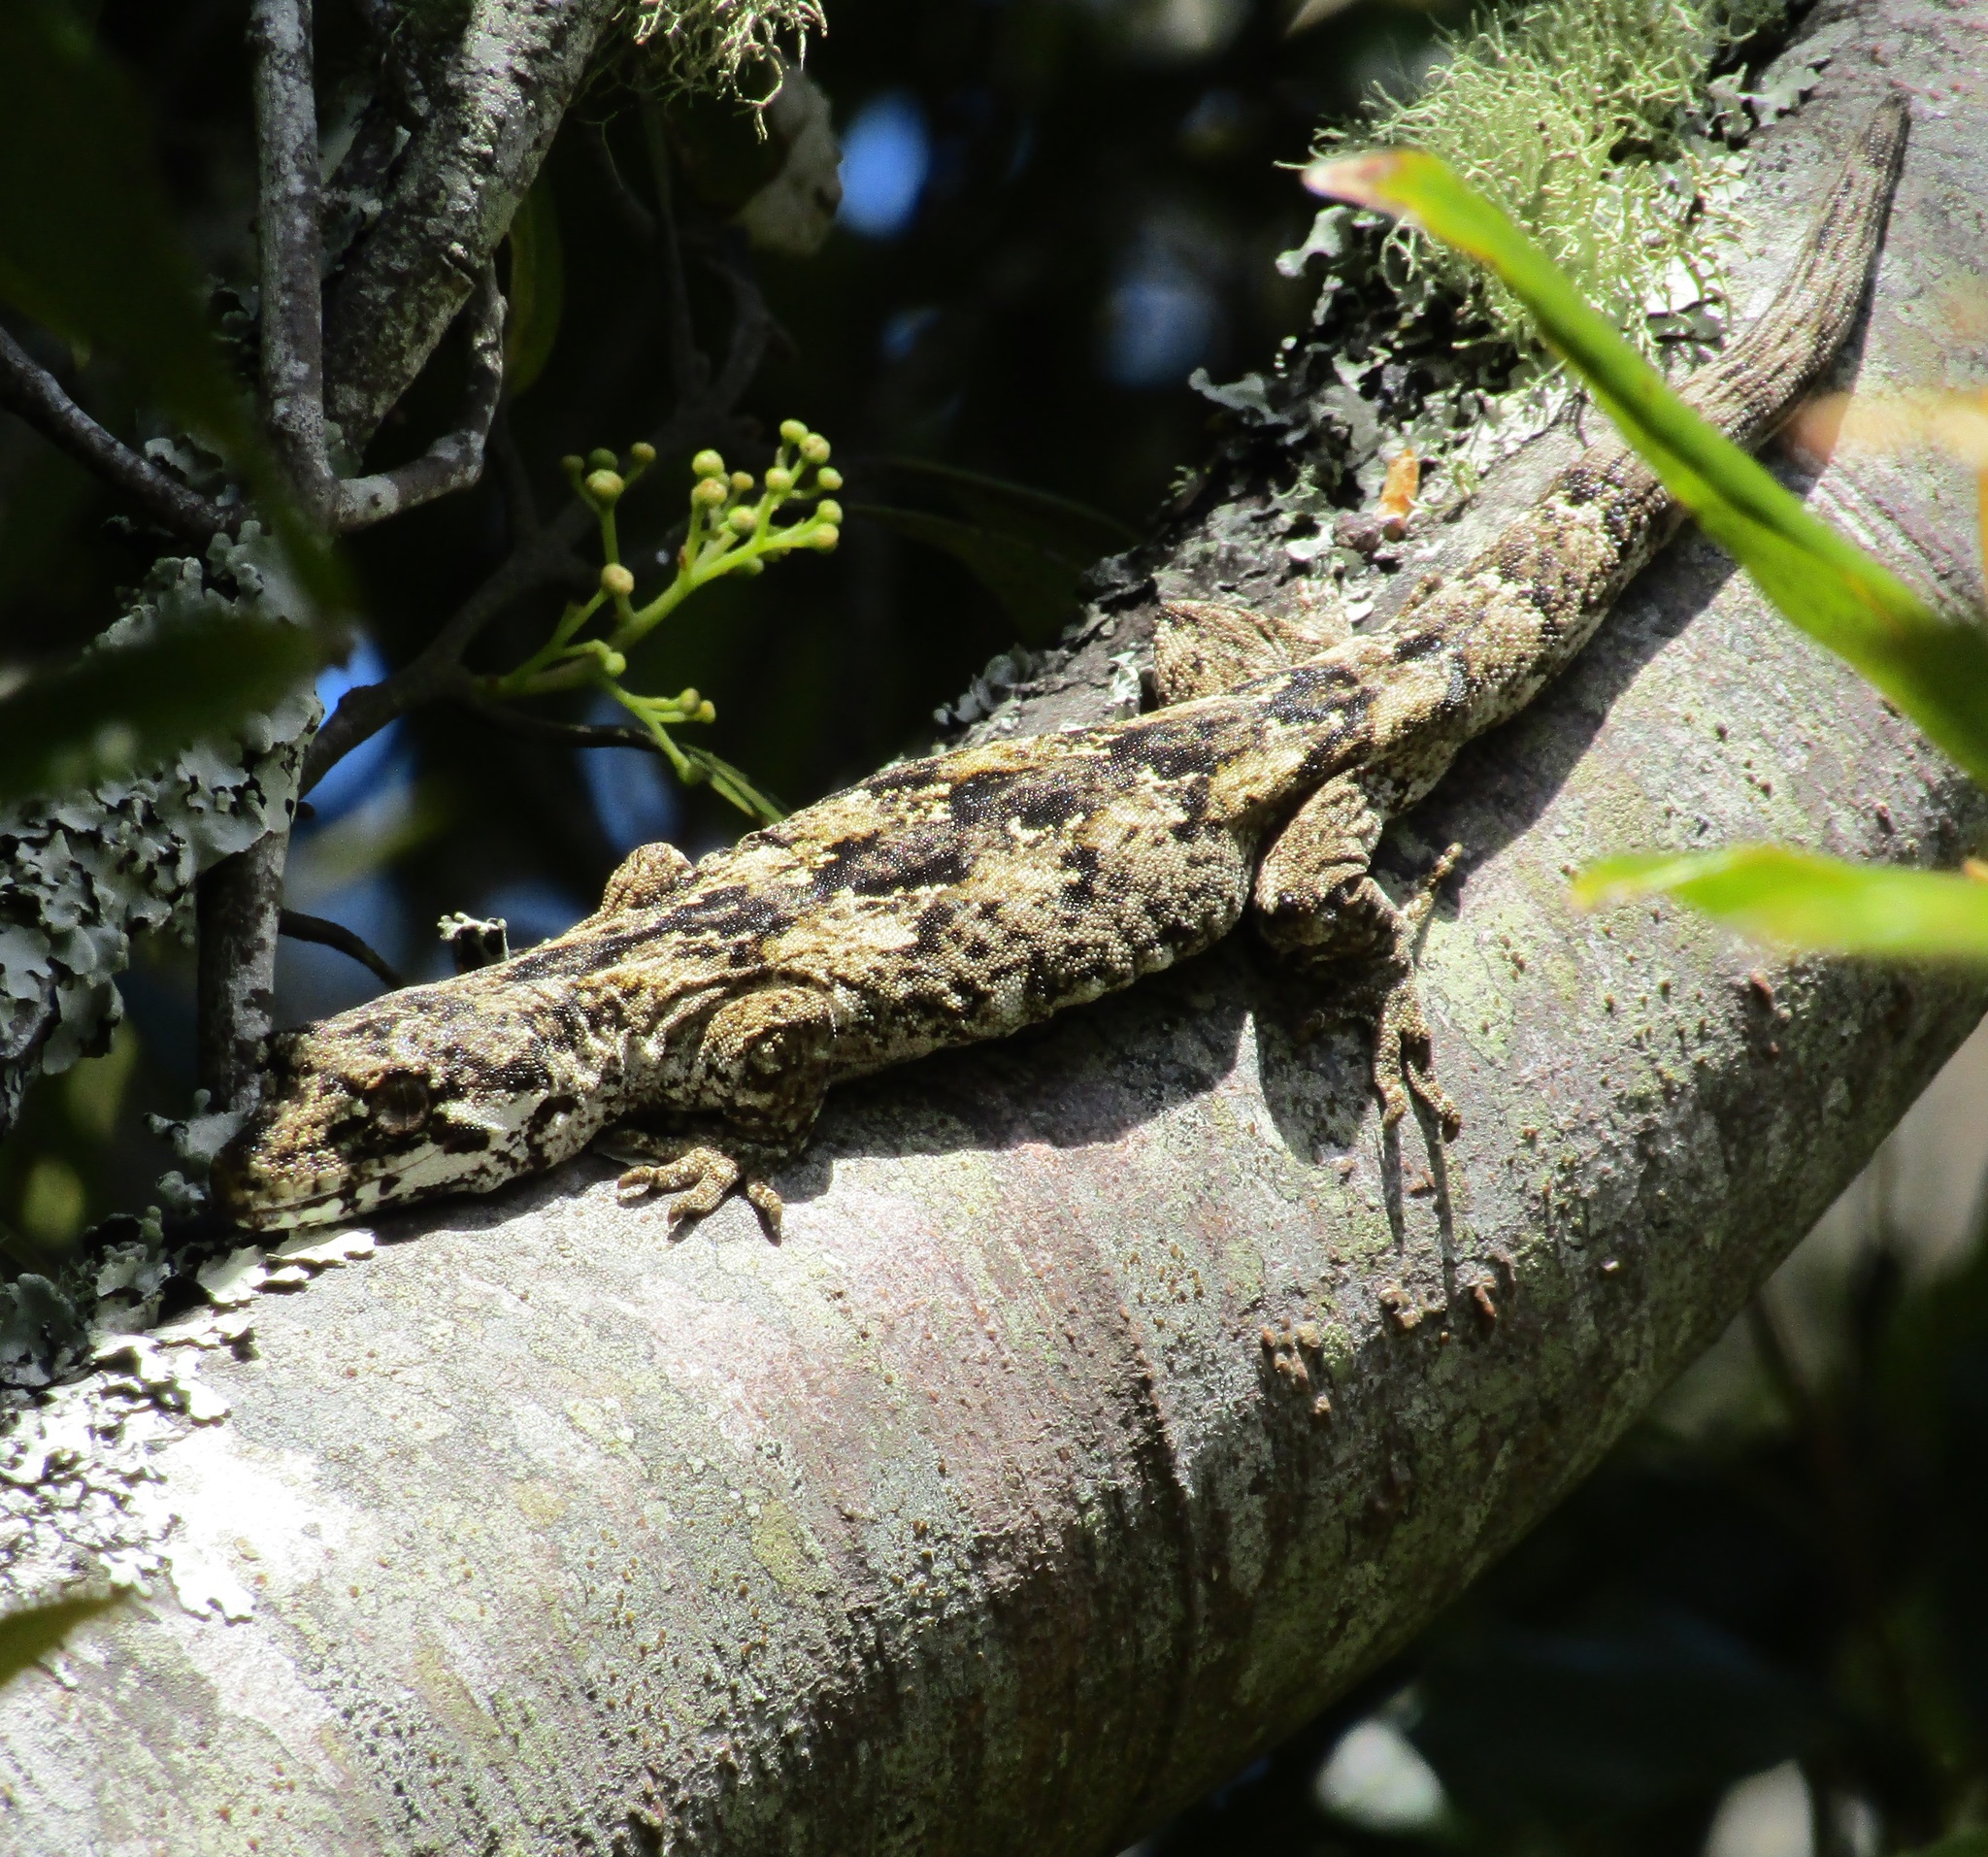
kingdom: Animalia
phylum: Chordata
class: Squamata
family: Diplodactylidae
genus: Mokopirirakau
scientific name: Mokopirirakau
